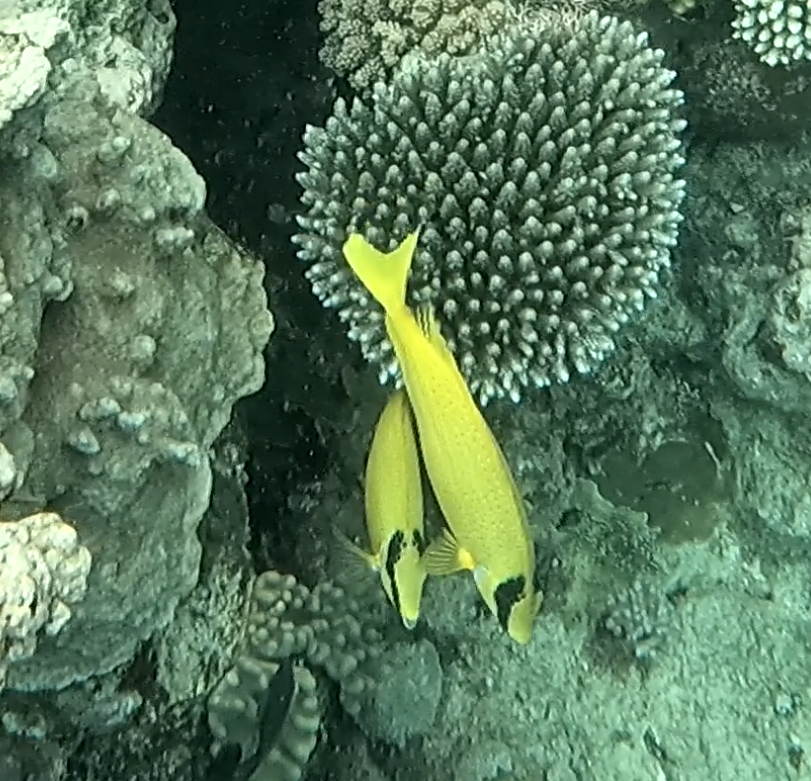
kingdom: Animalia
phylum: Chordata
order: Perciformes
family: Siganidae
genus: Siganus
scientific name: Siganus puellus
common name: Masked rabbitfish
